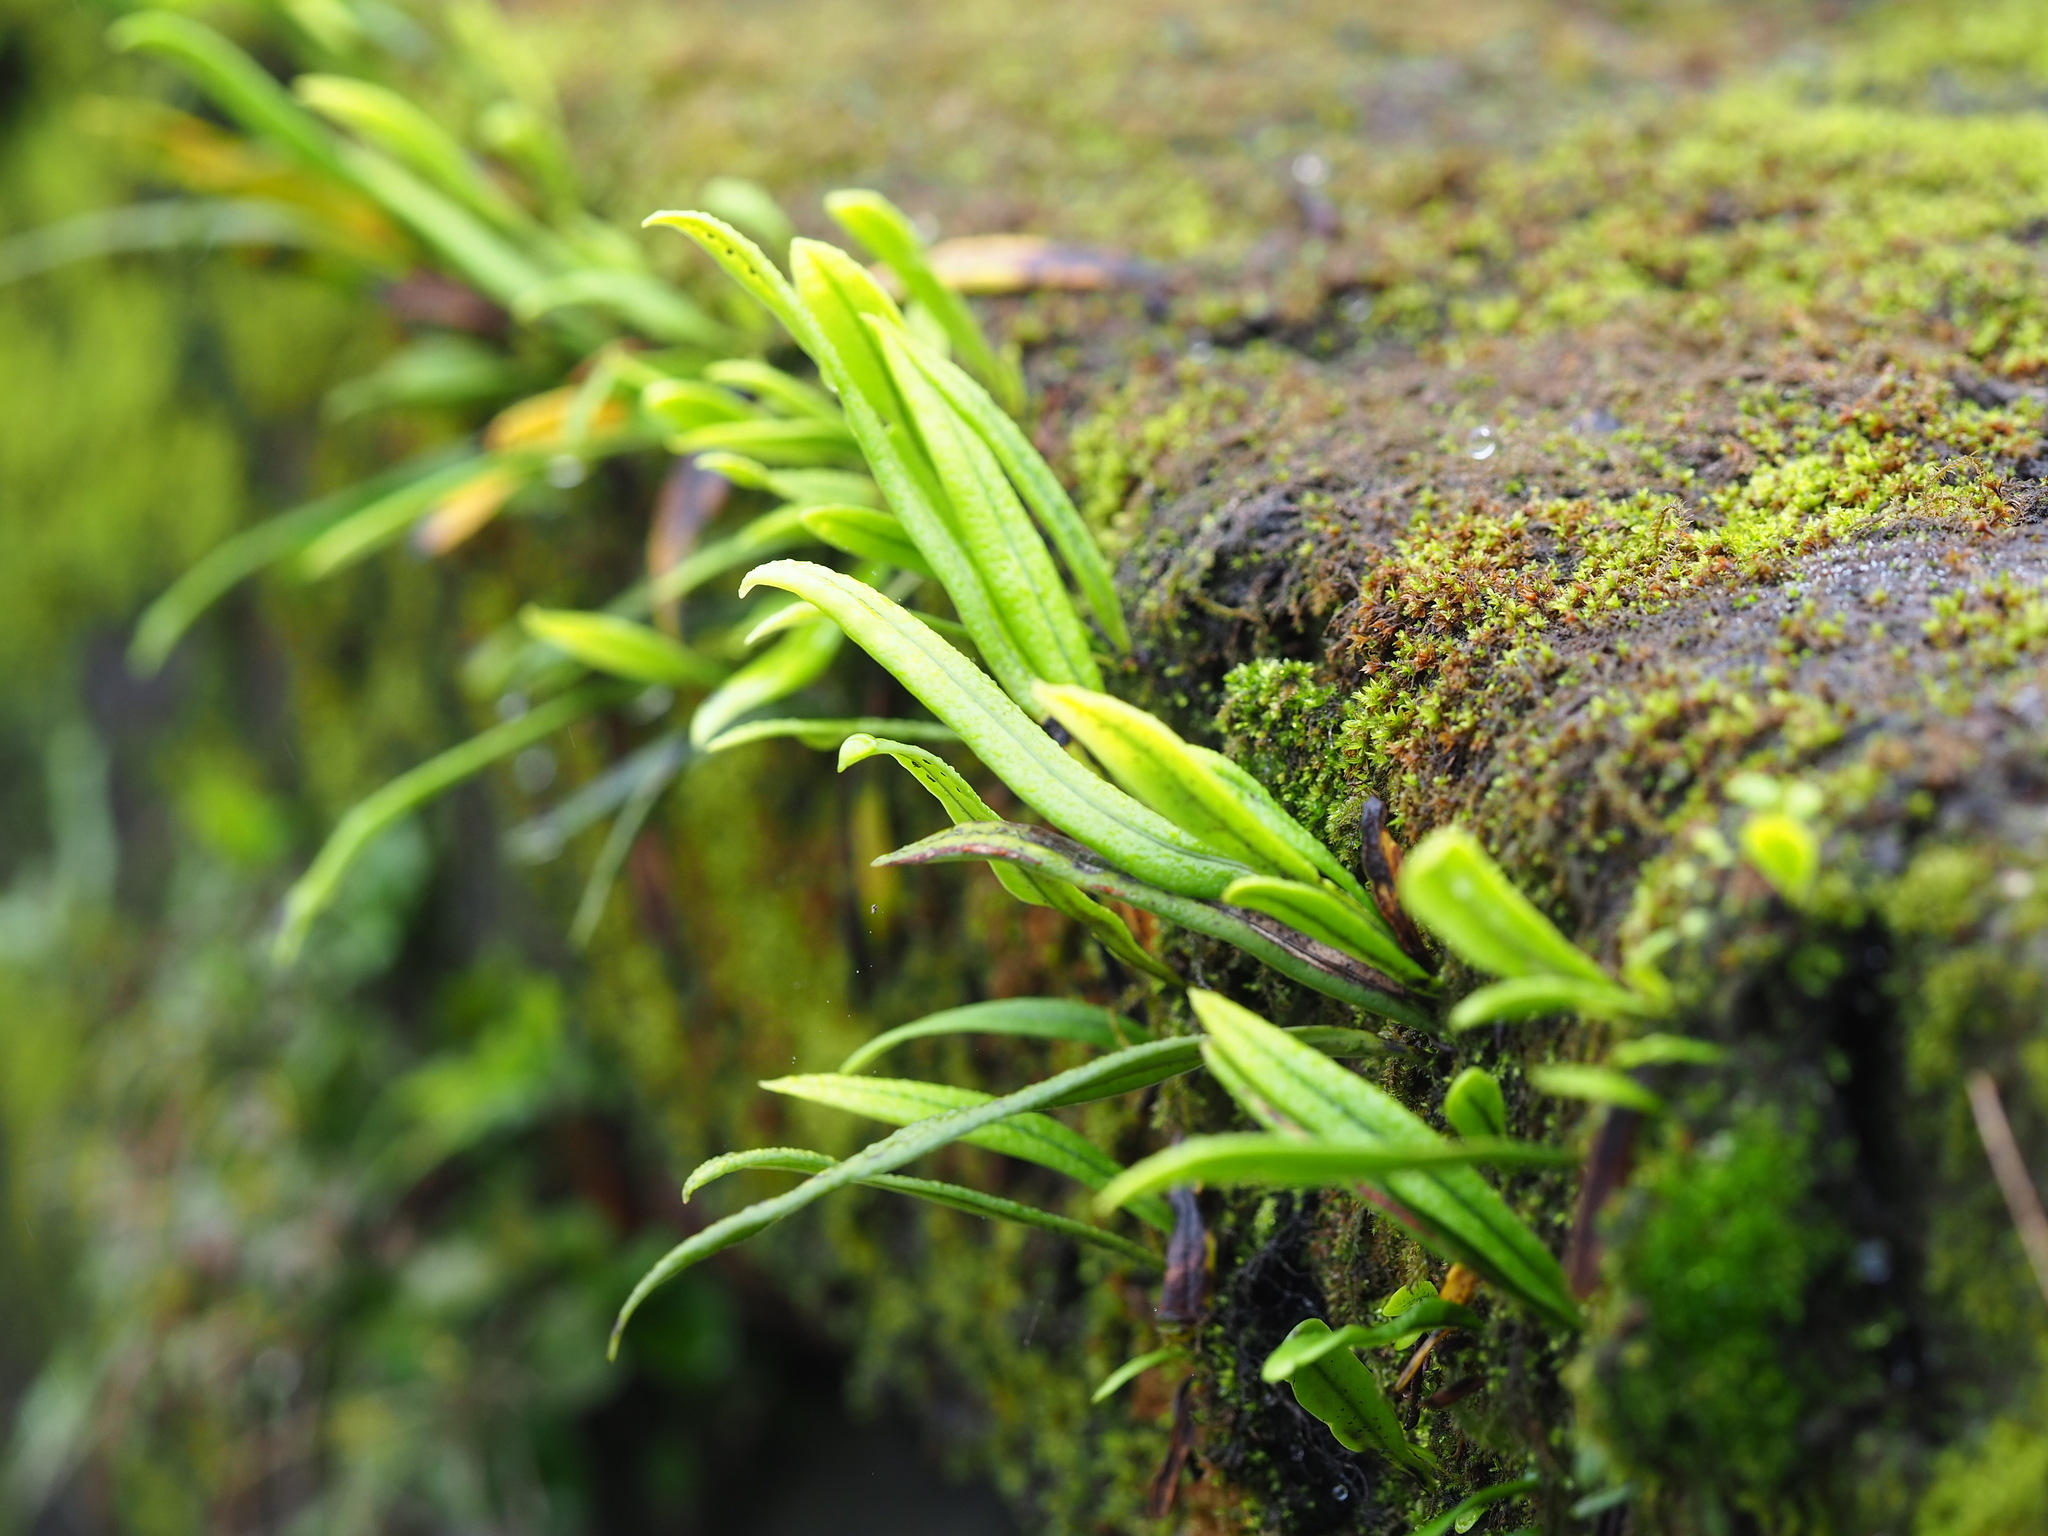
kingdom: Plantae
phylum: Tracheophyta
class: Polypodiopsida
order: Polypodiales
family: Polypodiaceae
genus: Lepisorus
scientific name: Lepisorus thunbergianus
